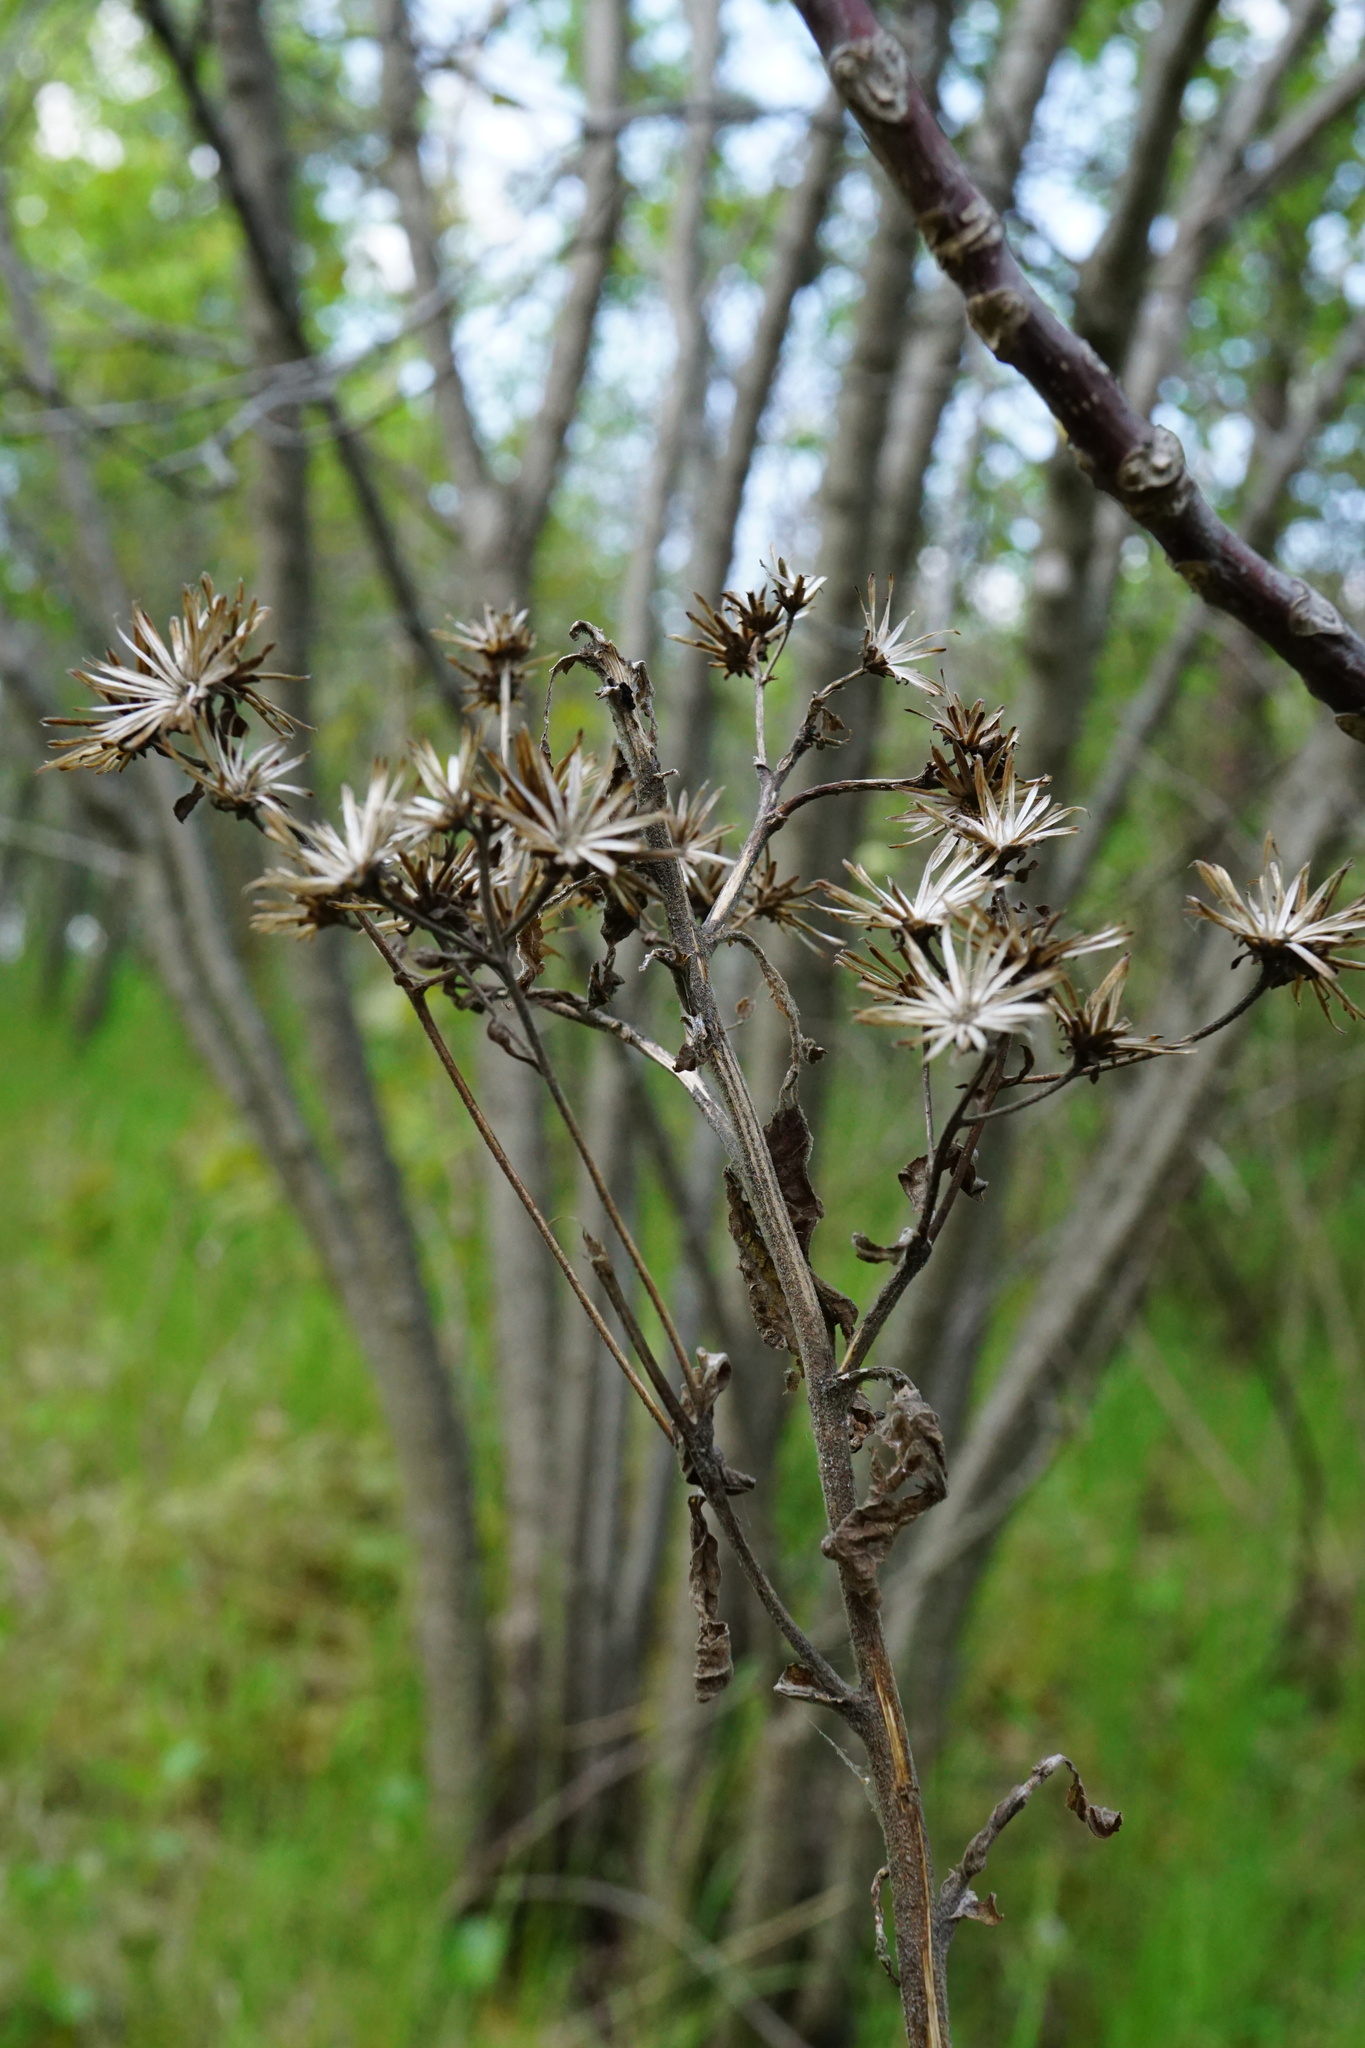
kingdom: Plantae
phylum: Tracheophyta
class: Magnoliopsida
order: Asterales
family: Asteraceae
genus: Pentanema
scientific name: Pentanema squarrosum
